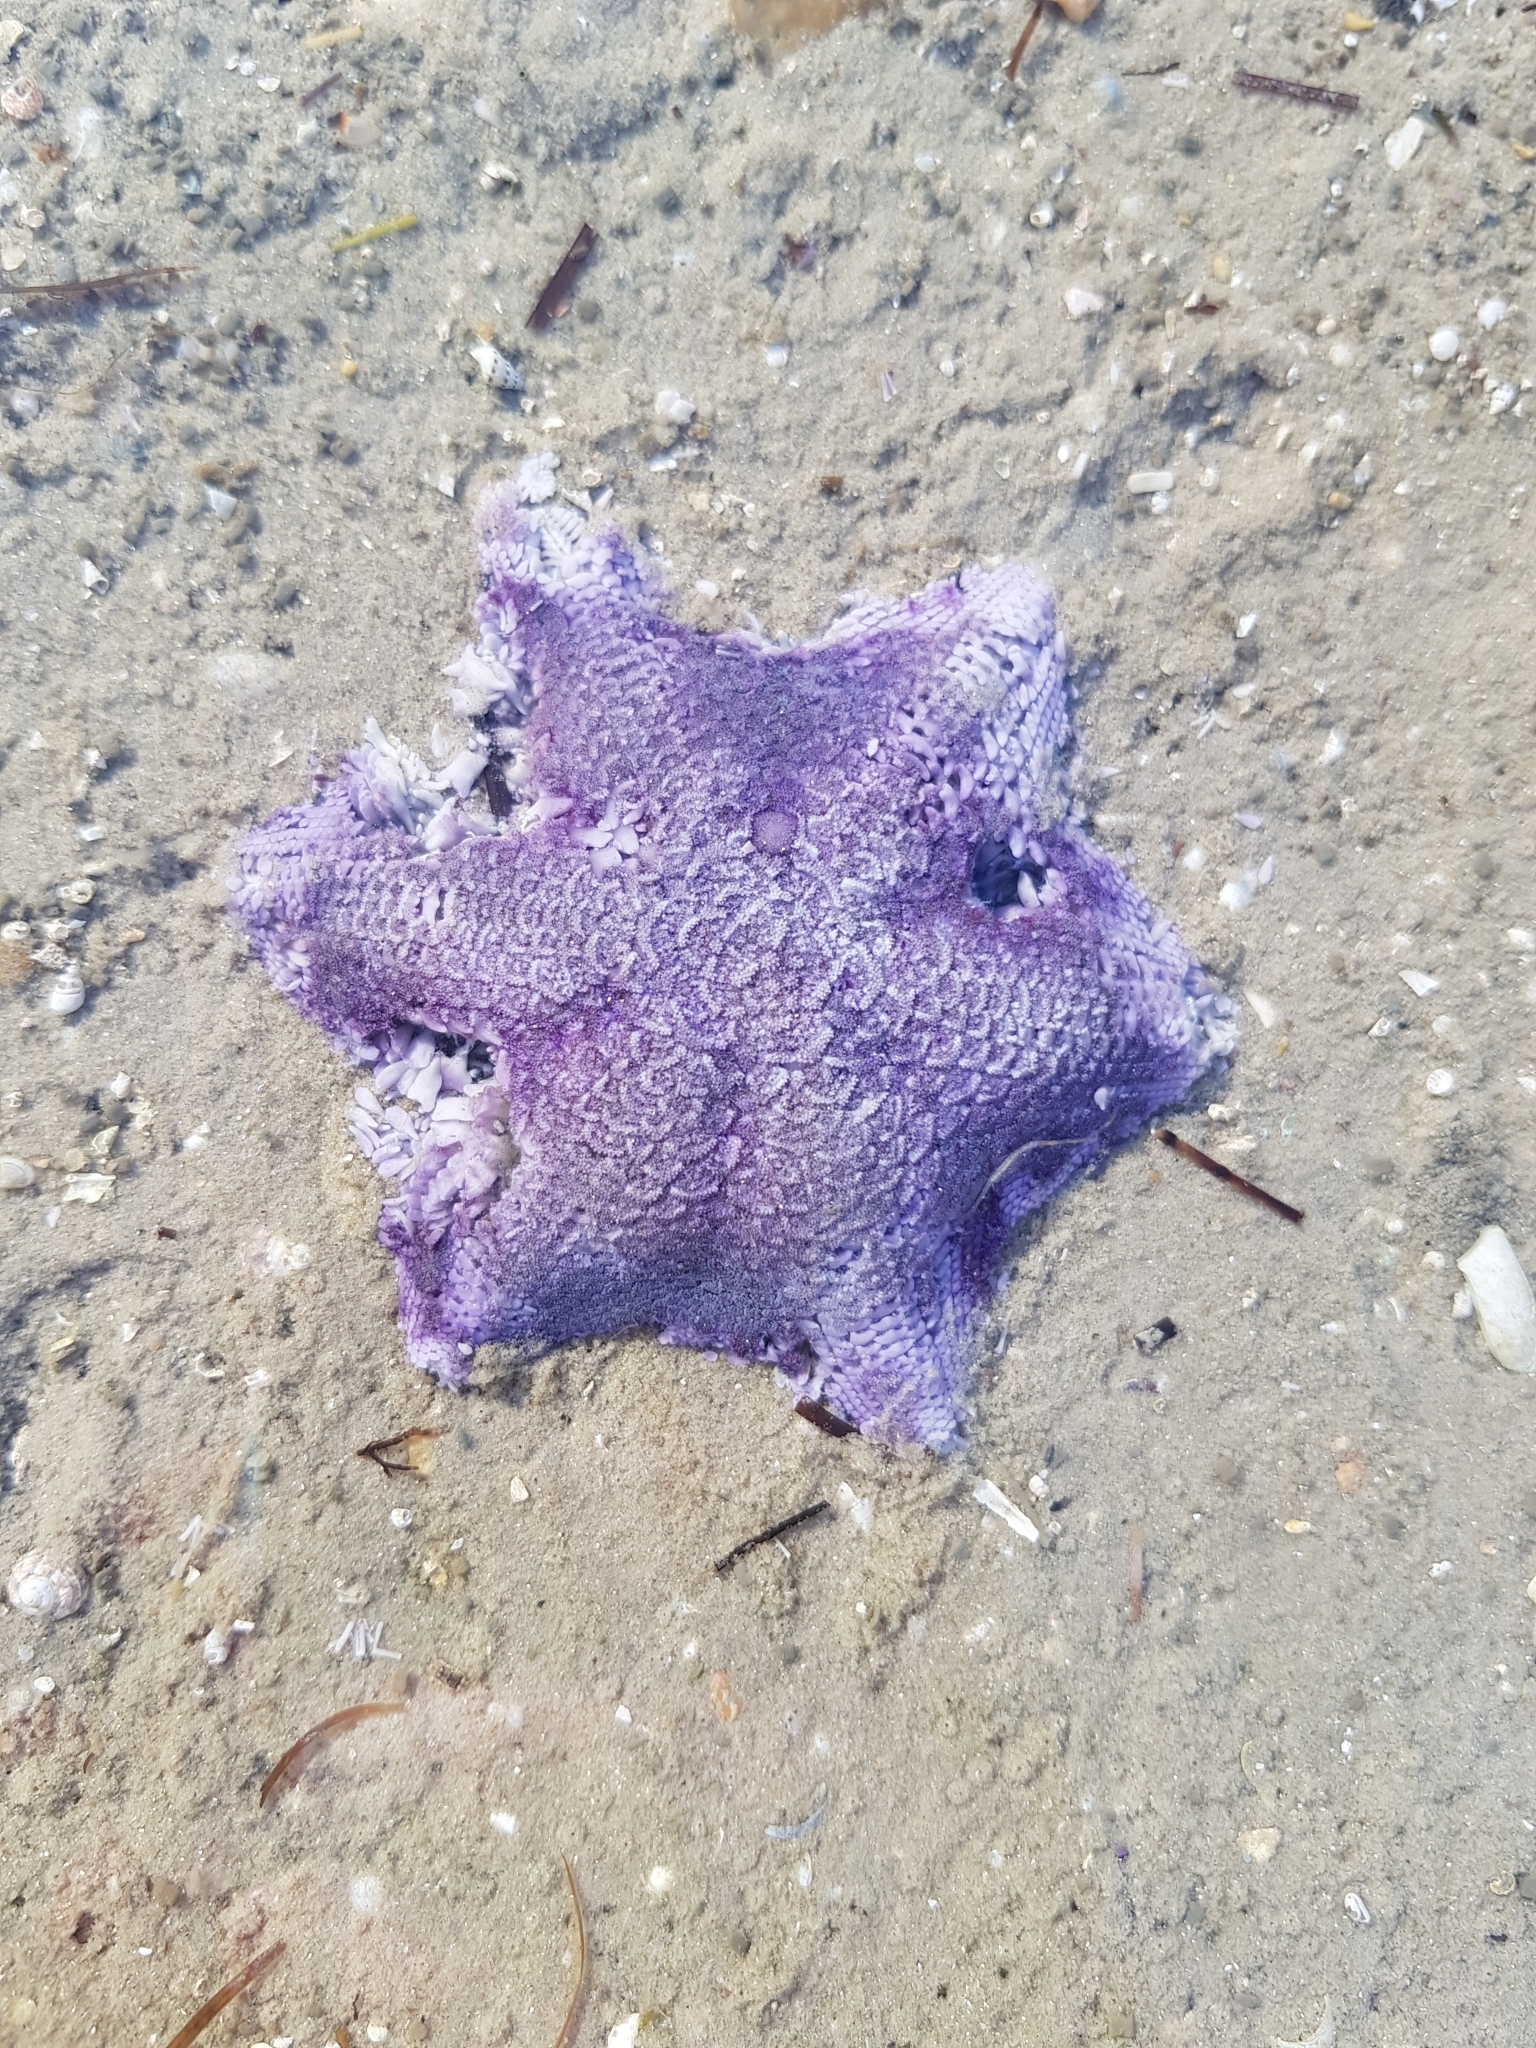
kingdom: Animalia
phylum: Echinodermata
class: Asteroidea
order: Valvatida
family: Asterinidae
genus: Meridiastra
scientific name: Meridiastra gunnii
